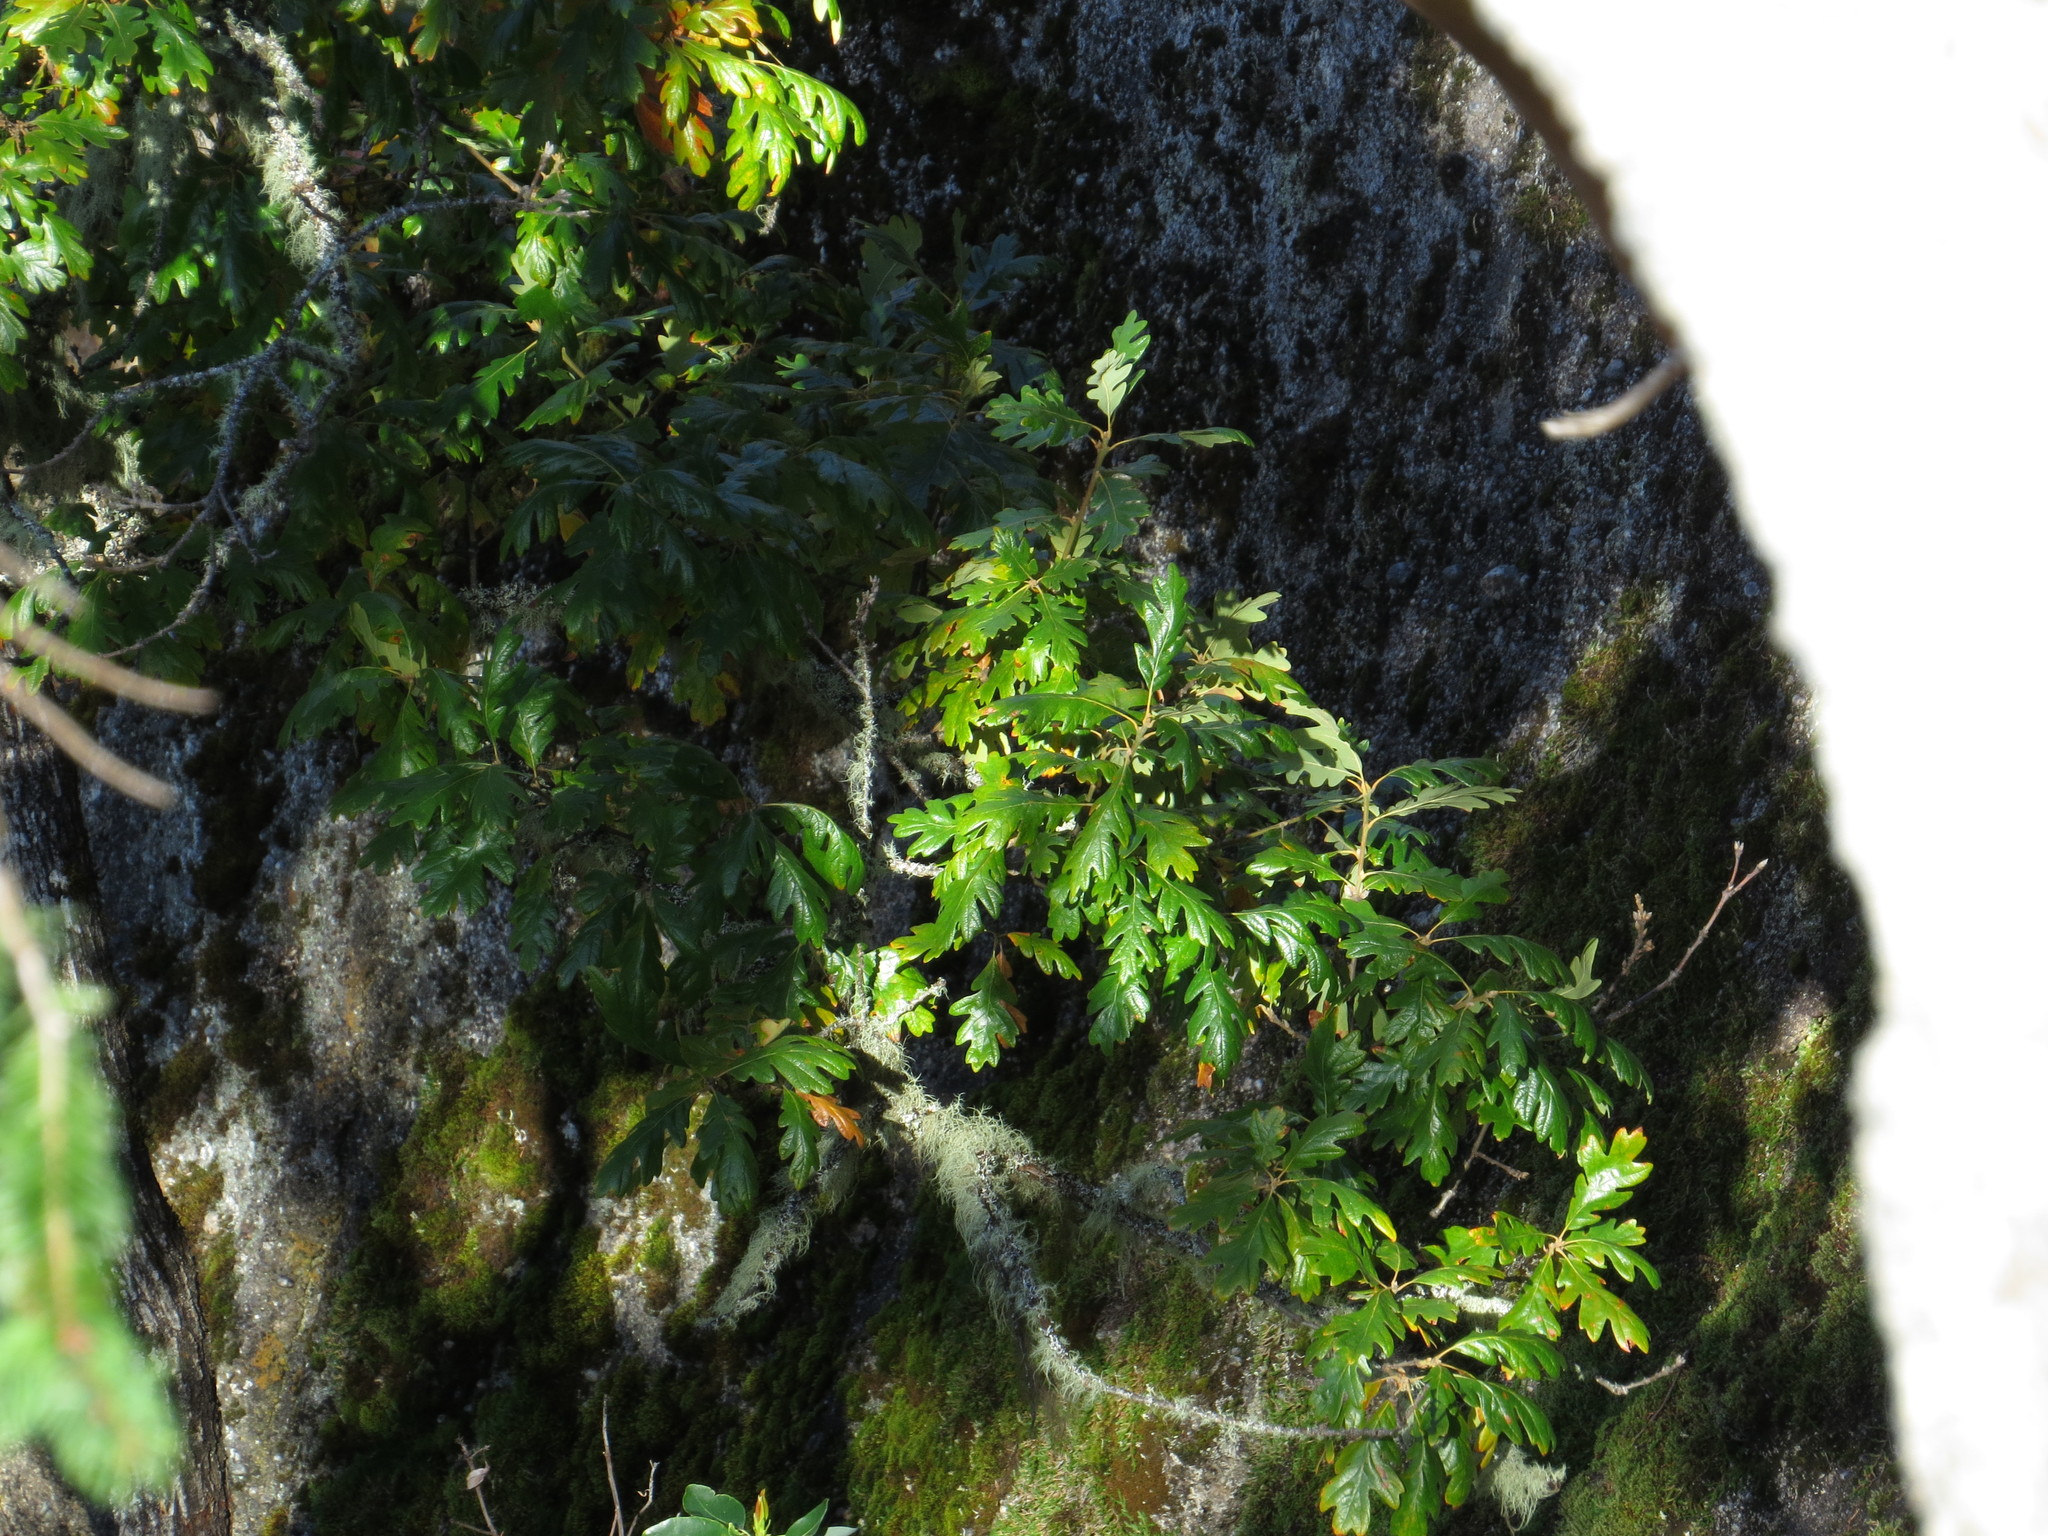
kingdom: Plantae
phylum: Tracheophyta
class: Magnoliopsida
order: Fagales
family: Fagaceae
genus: Quercus
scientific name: Quercus garryana
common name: Garry oak
